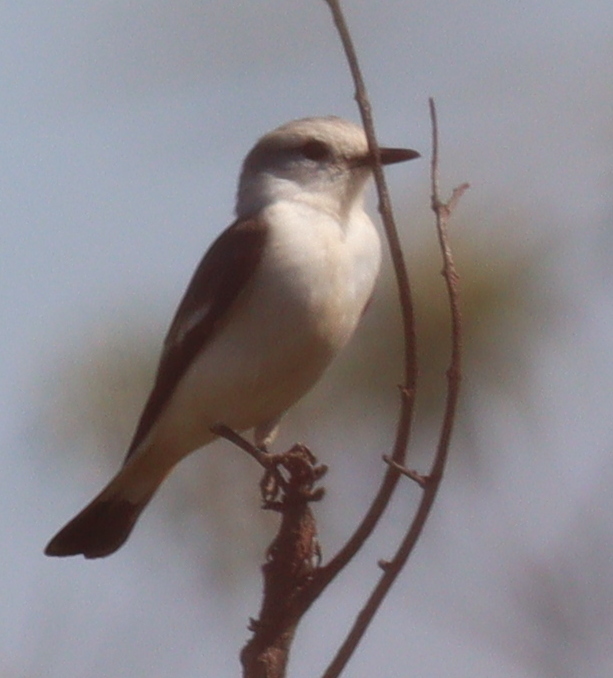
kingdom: Animalia
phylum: Chordata
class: Aves
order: Passeriformes
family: Tyrannidae
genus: Xolmis
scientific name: Xolmis velatus
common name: White-rumped monjita
